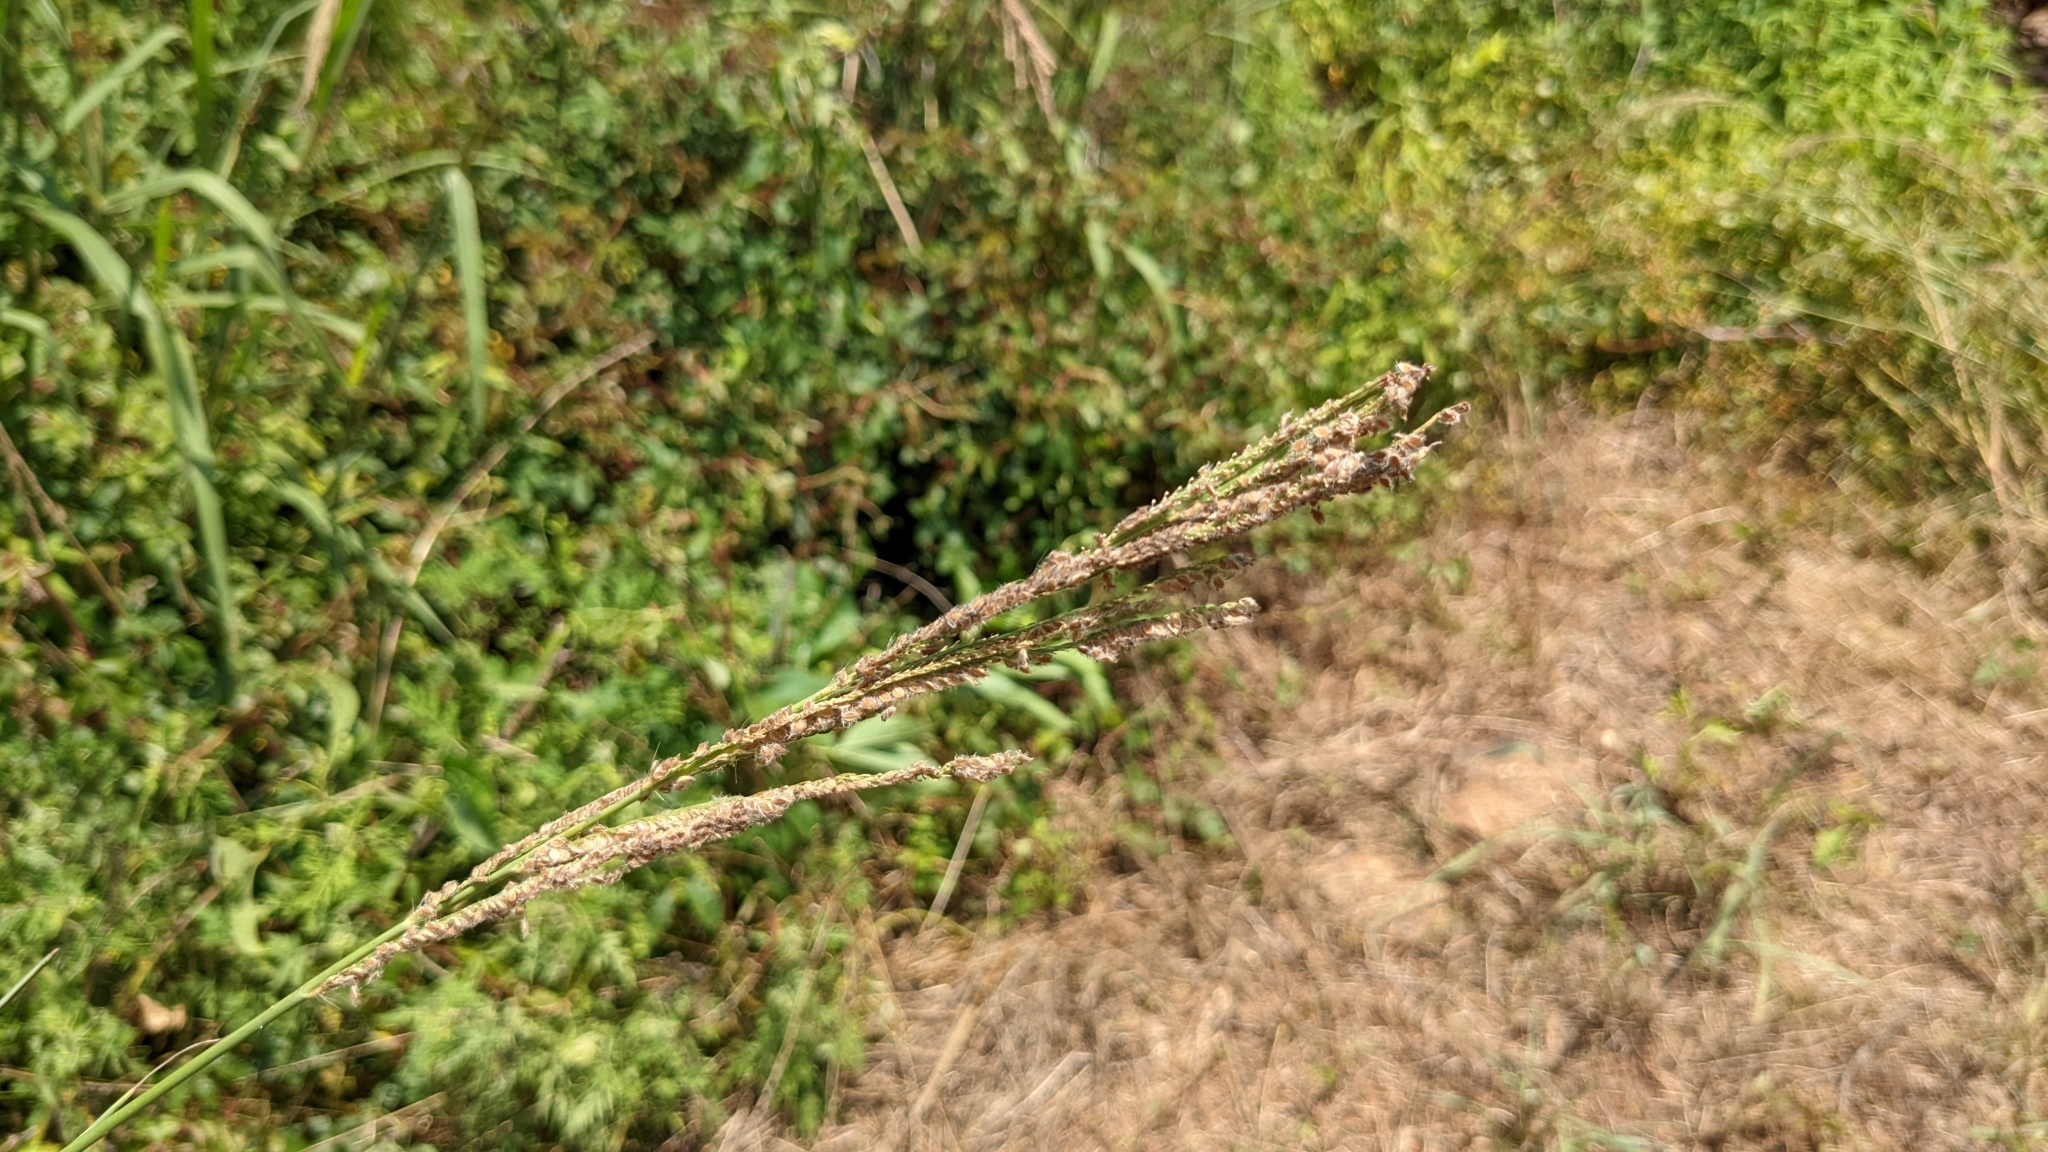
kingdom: Plantae
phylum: Tracheophyta
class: Liliopsida
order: Poales
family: Poaceae
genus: Paspalum
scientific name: Paspalum urvillei
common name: Vasey's grass
